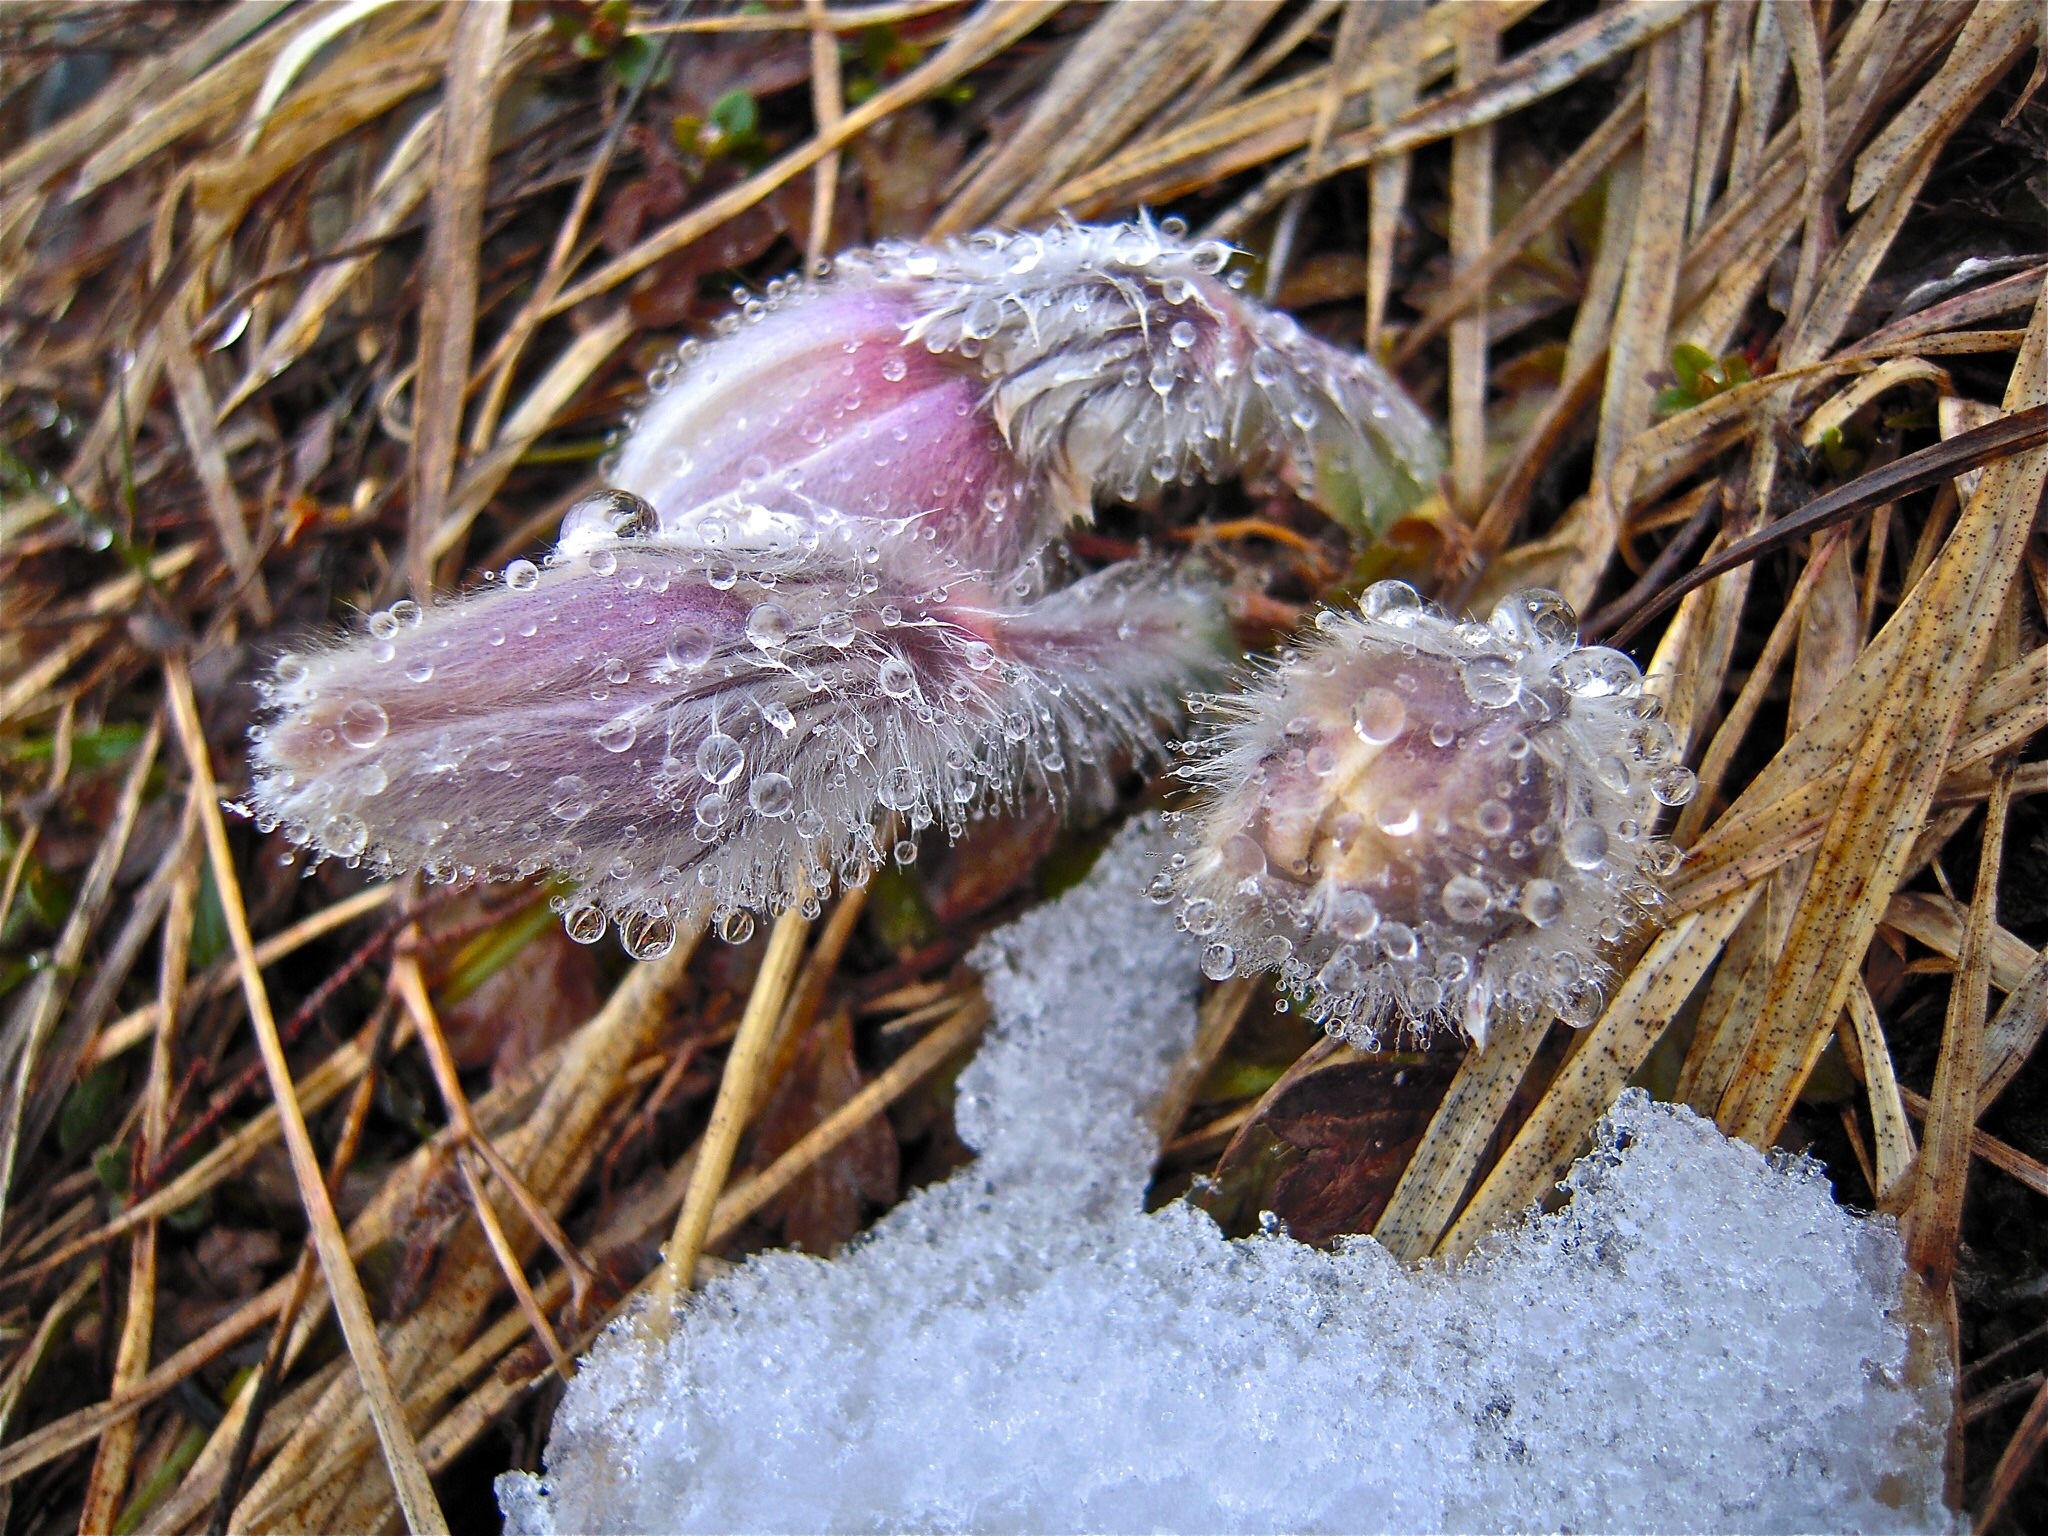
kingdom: Plantae
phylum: Tracheophyta
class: Magnoliopsida
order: Ranunculales
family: Ranunculaceae
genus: Pulsatilla
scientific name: Pulsatilla vernalis
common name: Spring pasque flower
